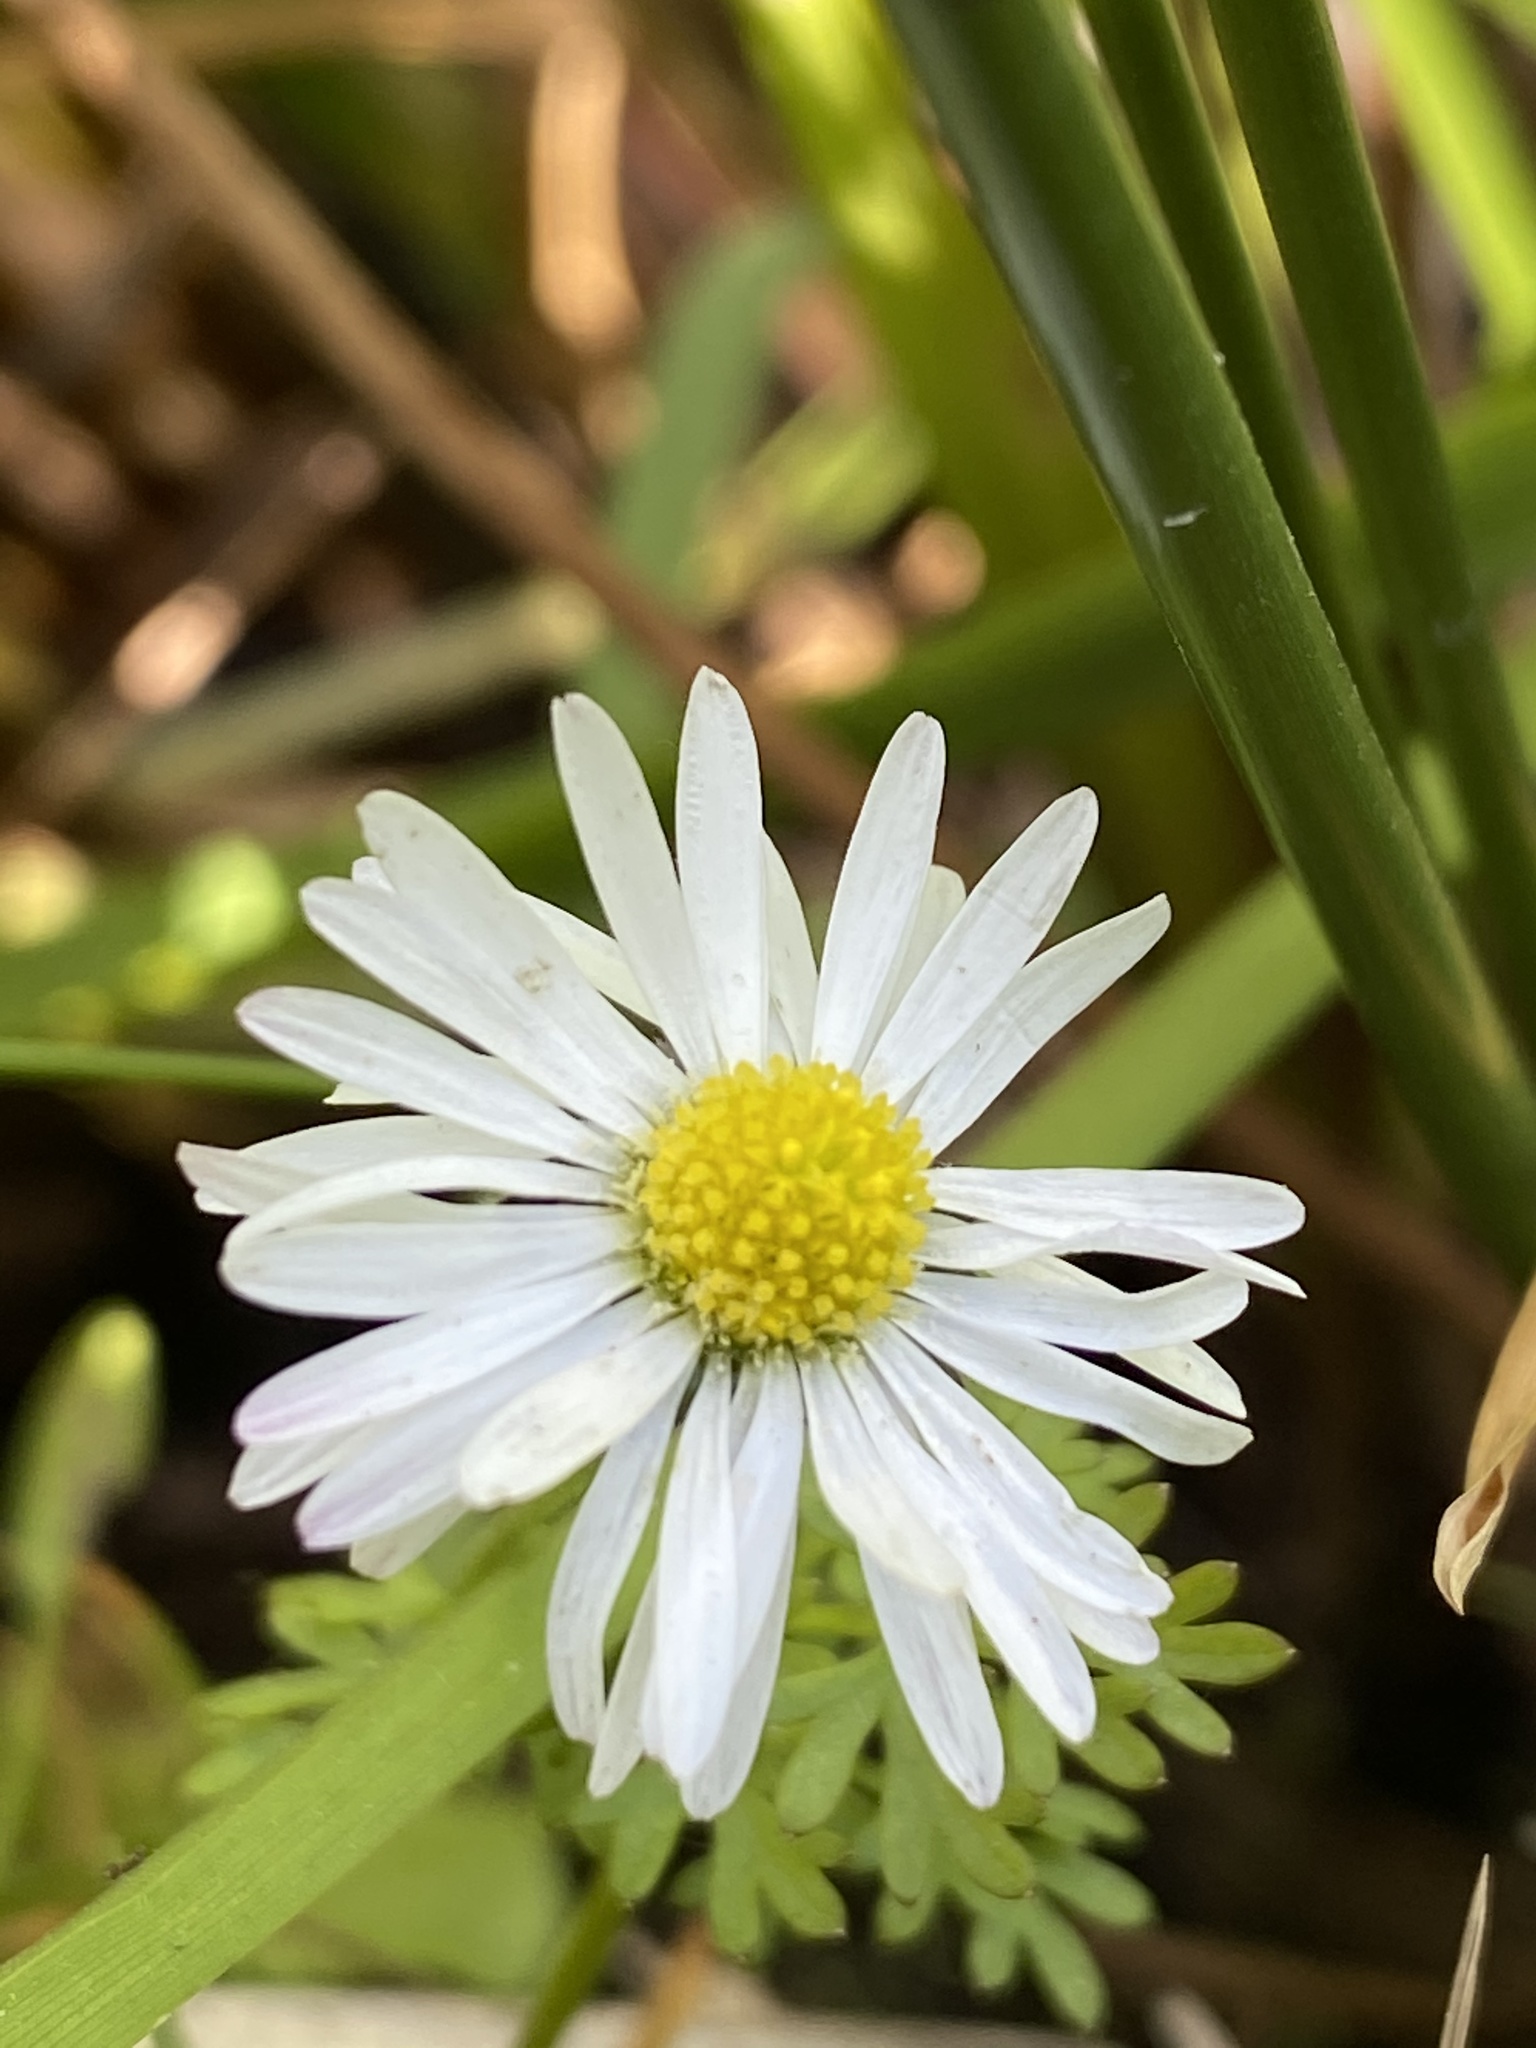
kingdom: Plantae
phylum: Tracheophyta
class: Magnoliopsida
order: Asterales
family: Asteraceae
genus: Bellis
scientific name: Bellis perennis
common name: Lawndaisy
